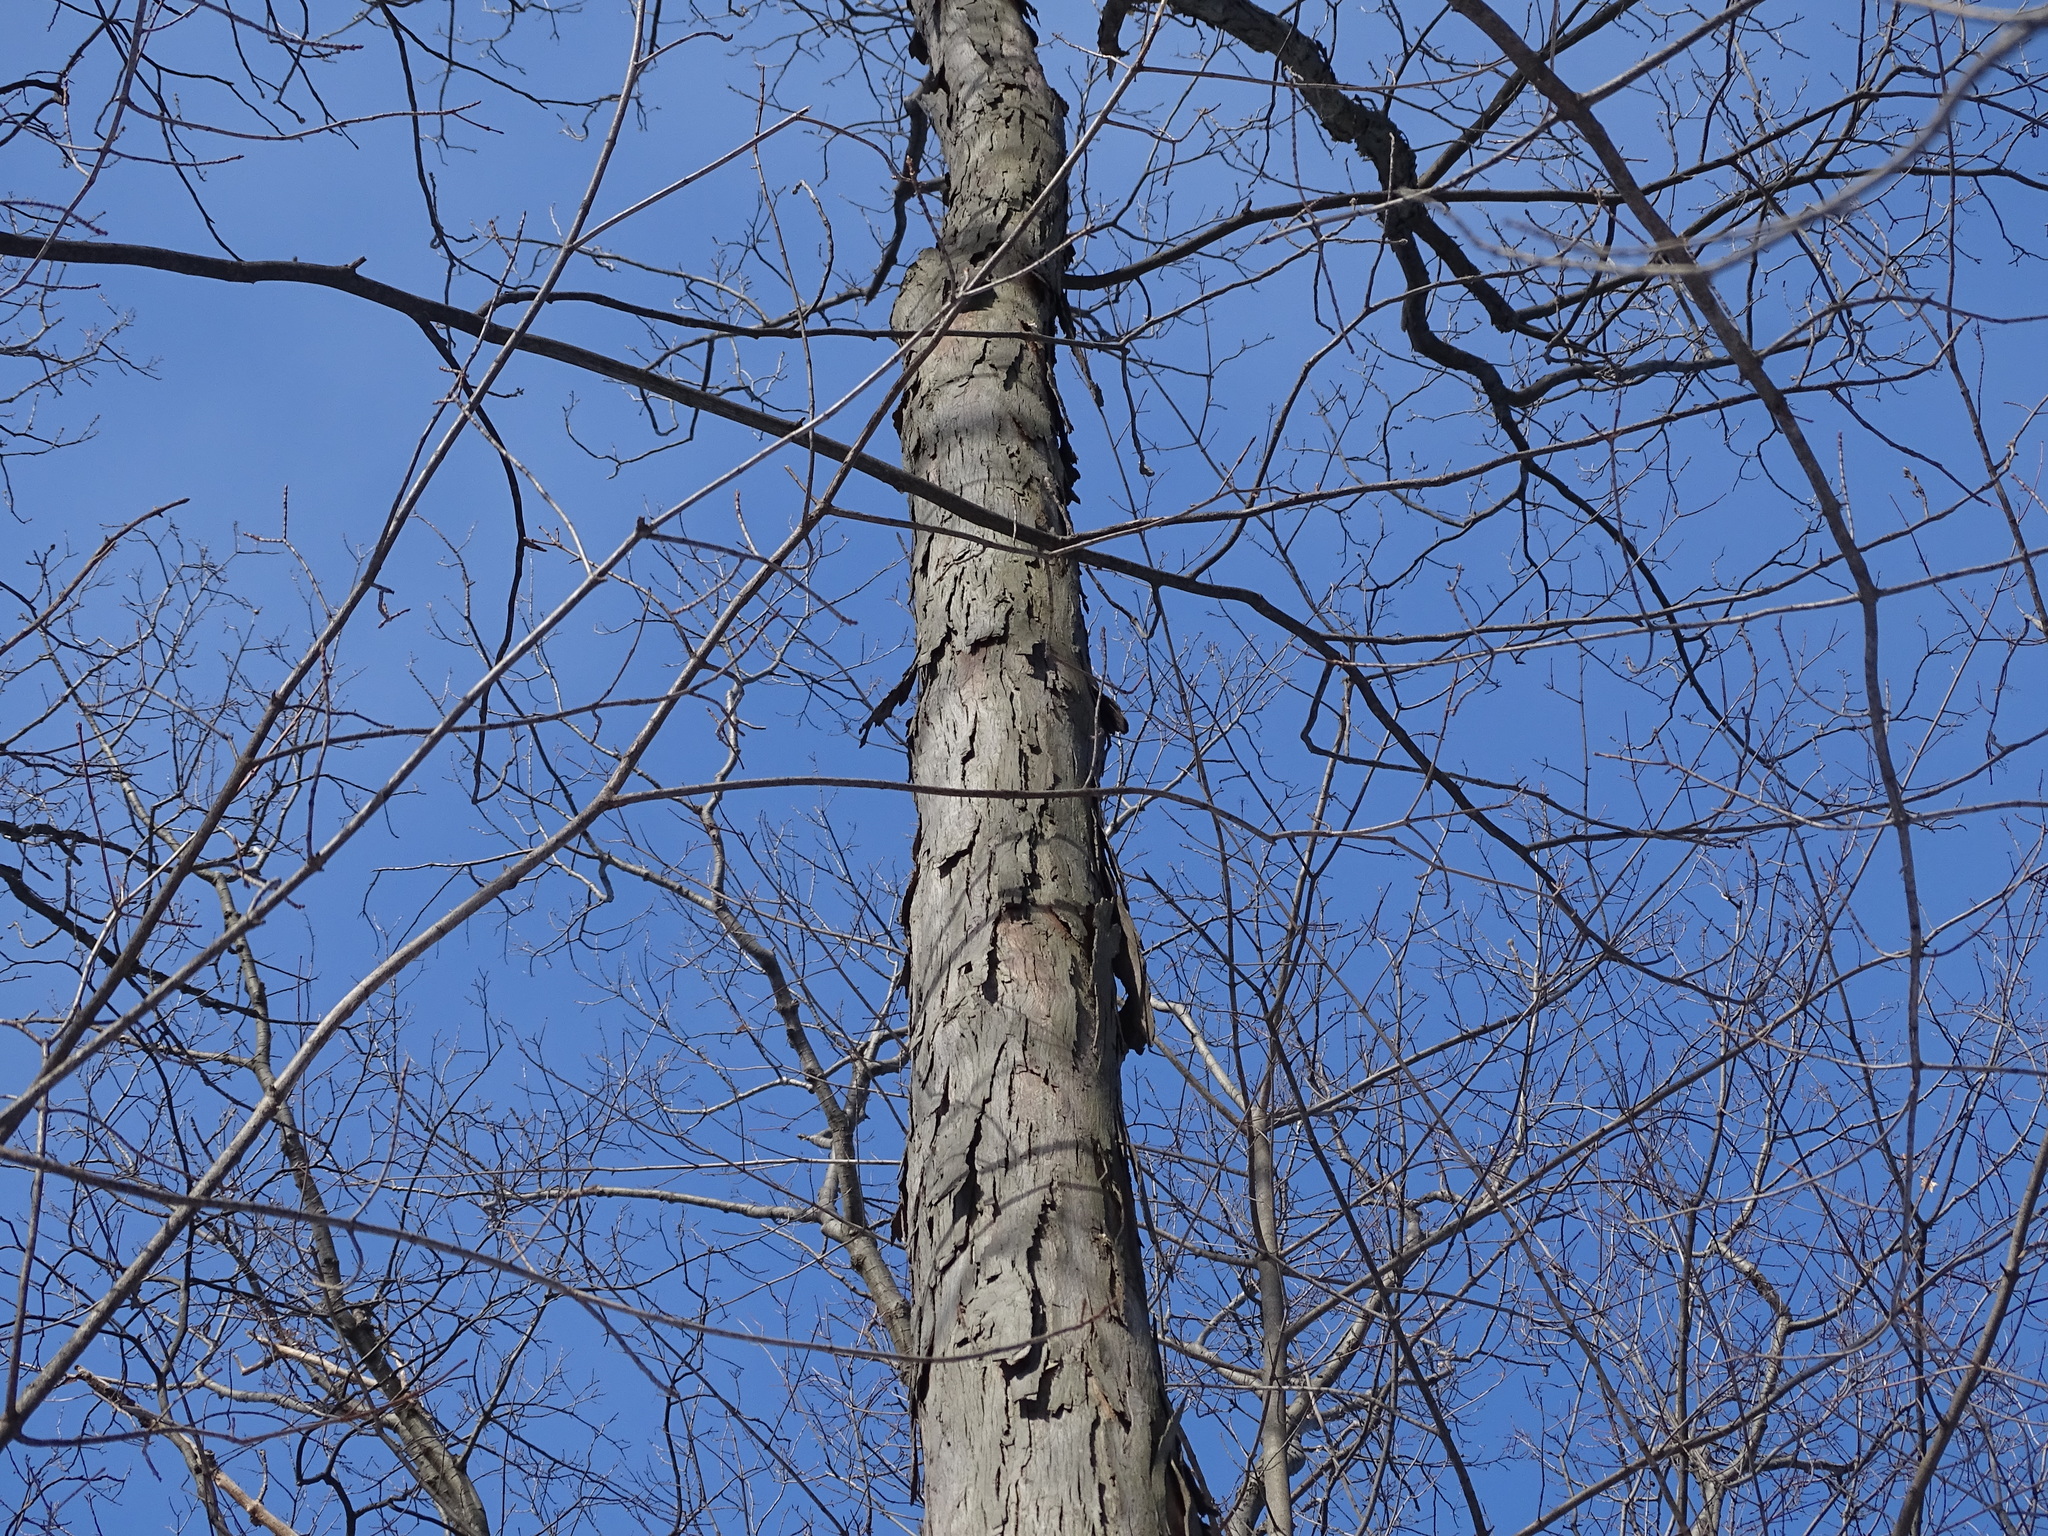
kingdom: Plantae
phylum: Tracheophyta
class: Magnoliopsida
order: Fagales
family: Juglandaceae
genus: Carya
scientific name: Carya ovata
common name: Shagbark hickory
